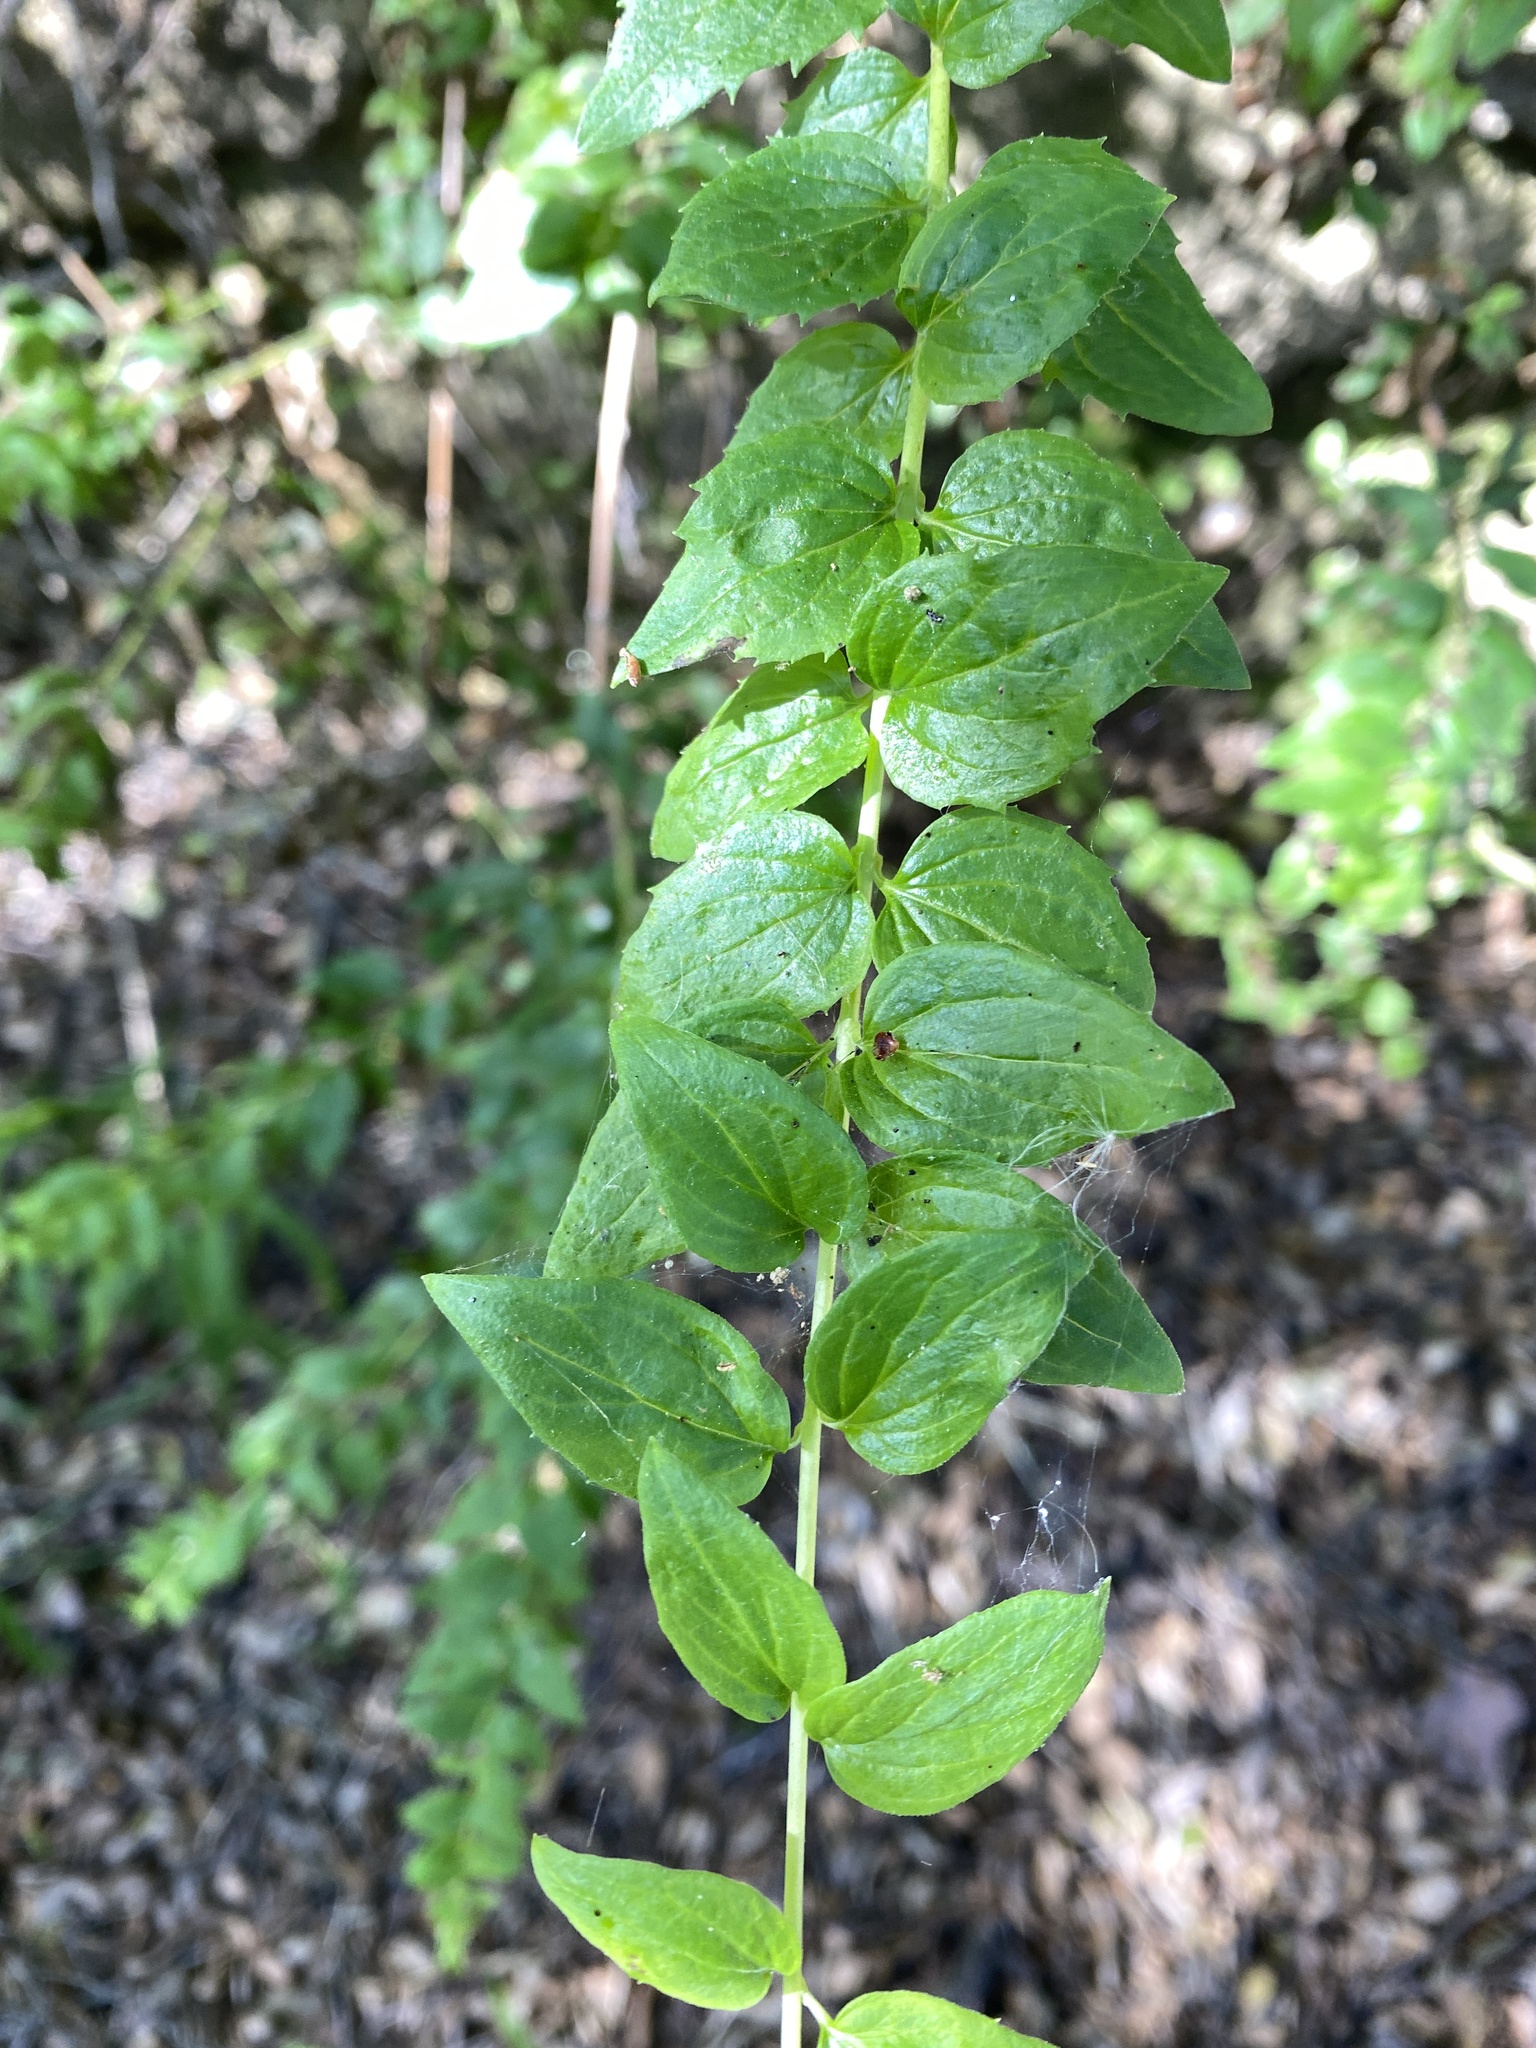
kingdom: Plantae
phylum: Tracheophyta
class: Magnoliopsida
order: Lamiales
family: Plantaginaceae
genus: Keckiella
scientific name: Keckiella cordifolia
